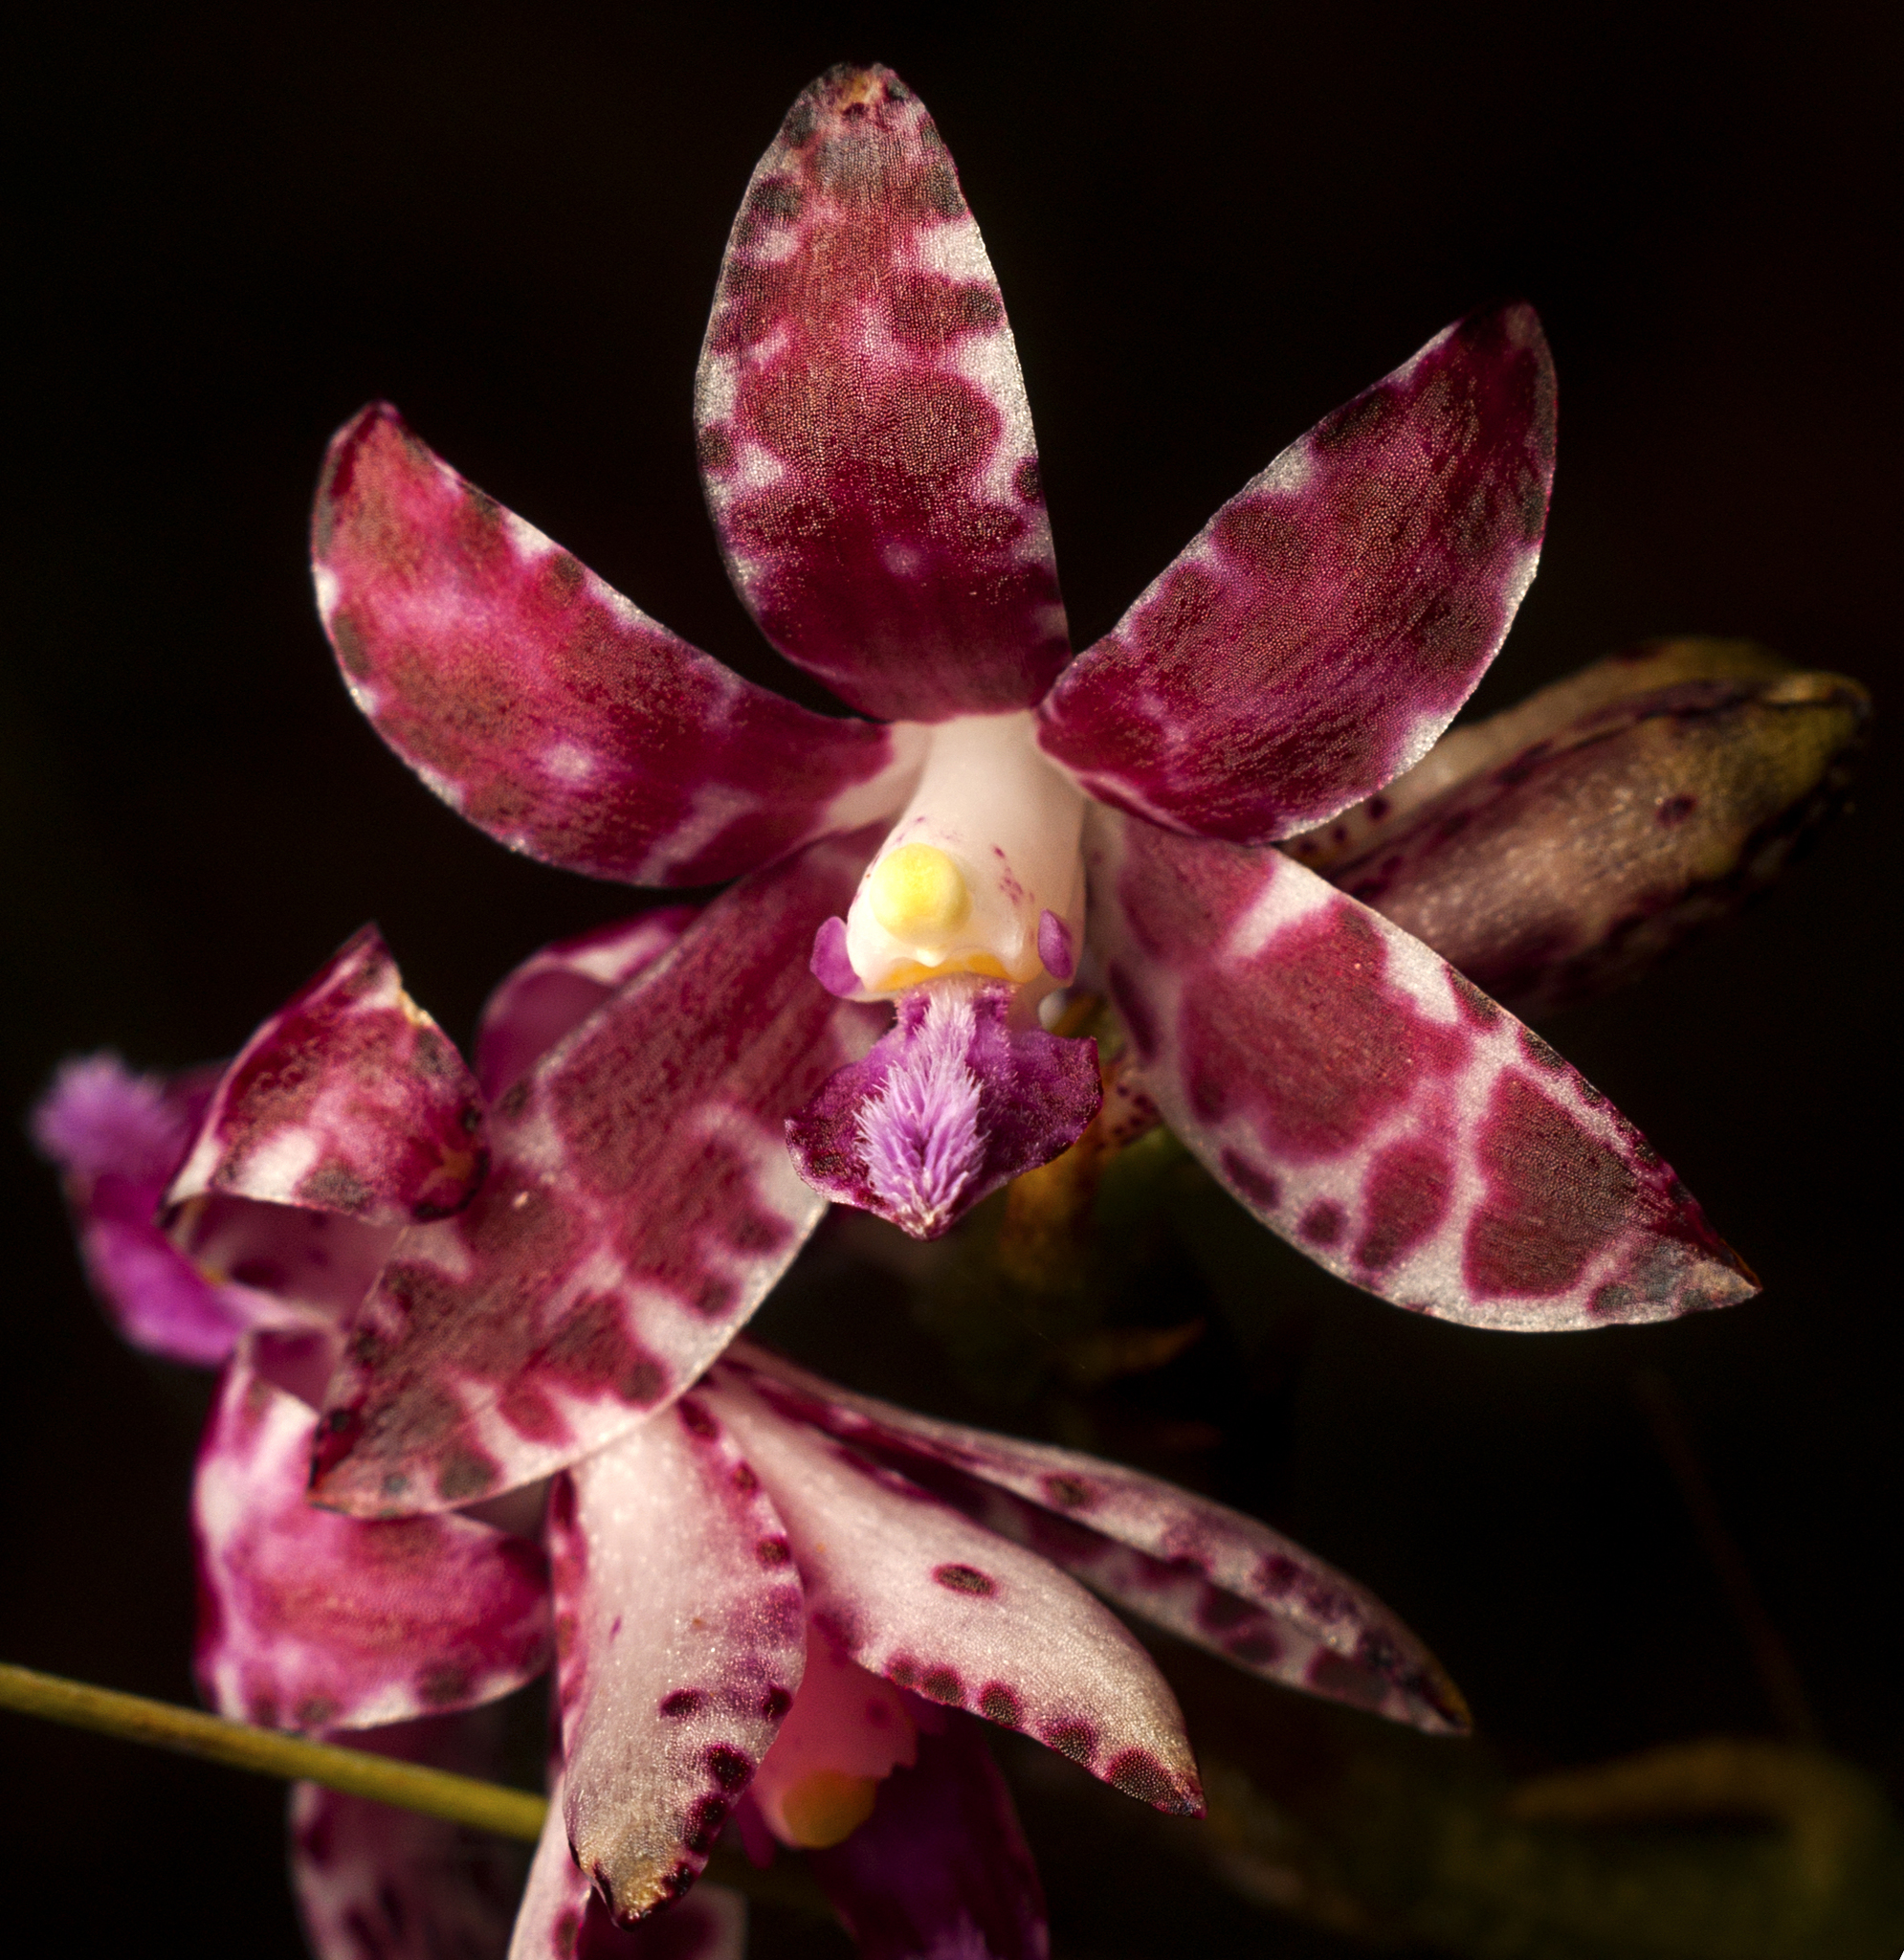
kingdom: Plantae
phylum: Tracheophyta
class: Liliopsida
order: Asparagales
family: Orchidaceae
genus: Dipodium
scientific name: Dipodium variegatum
